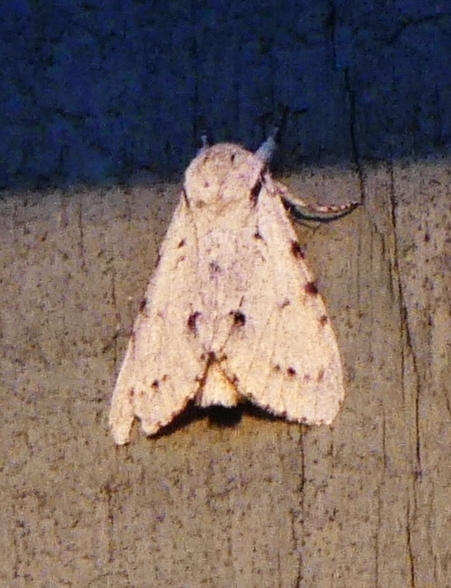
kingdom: Animalia
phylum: Arthropoda
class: Insecta
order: Lepidoptera
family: Noctuidae
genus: Acronicta
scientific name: Acronicta lepusculina
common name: Cottonwood dagger
